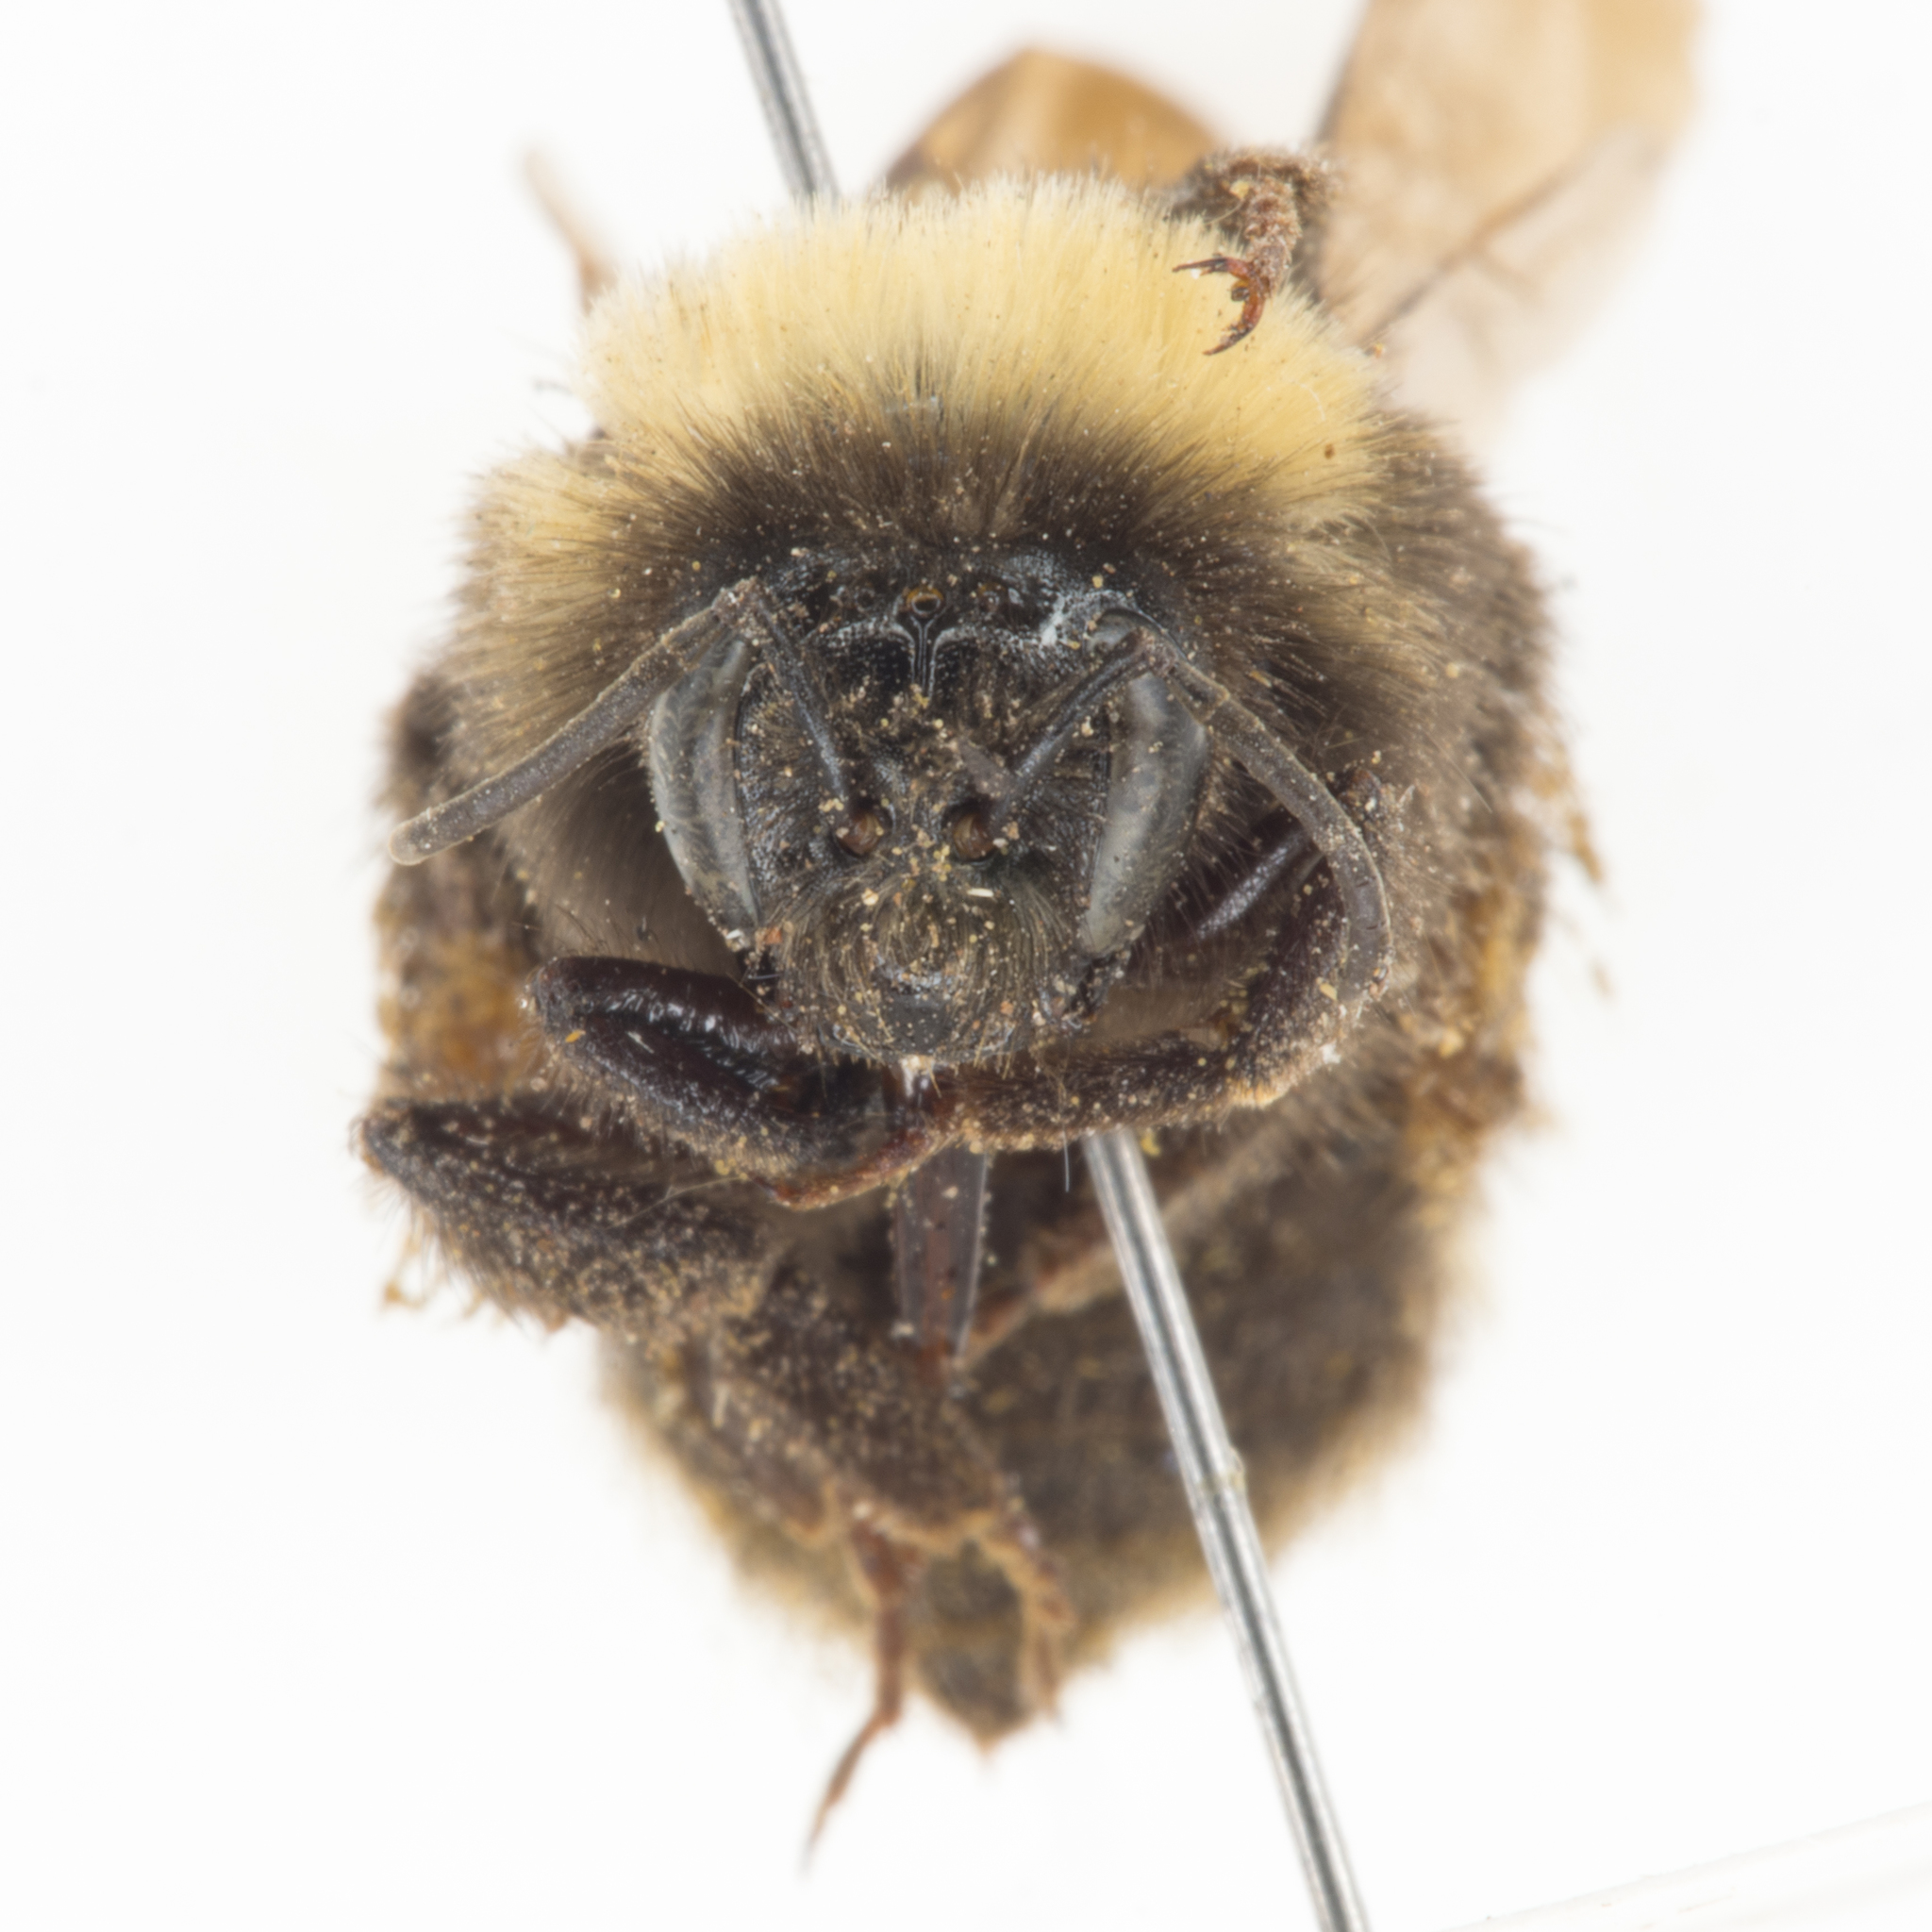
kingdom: Animalia
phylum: Arthropoda
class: Insecta
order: Hymenoptera
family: Apidae
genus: Bombus
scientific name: Bombus occidentalis
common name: Western bumble bee
